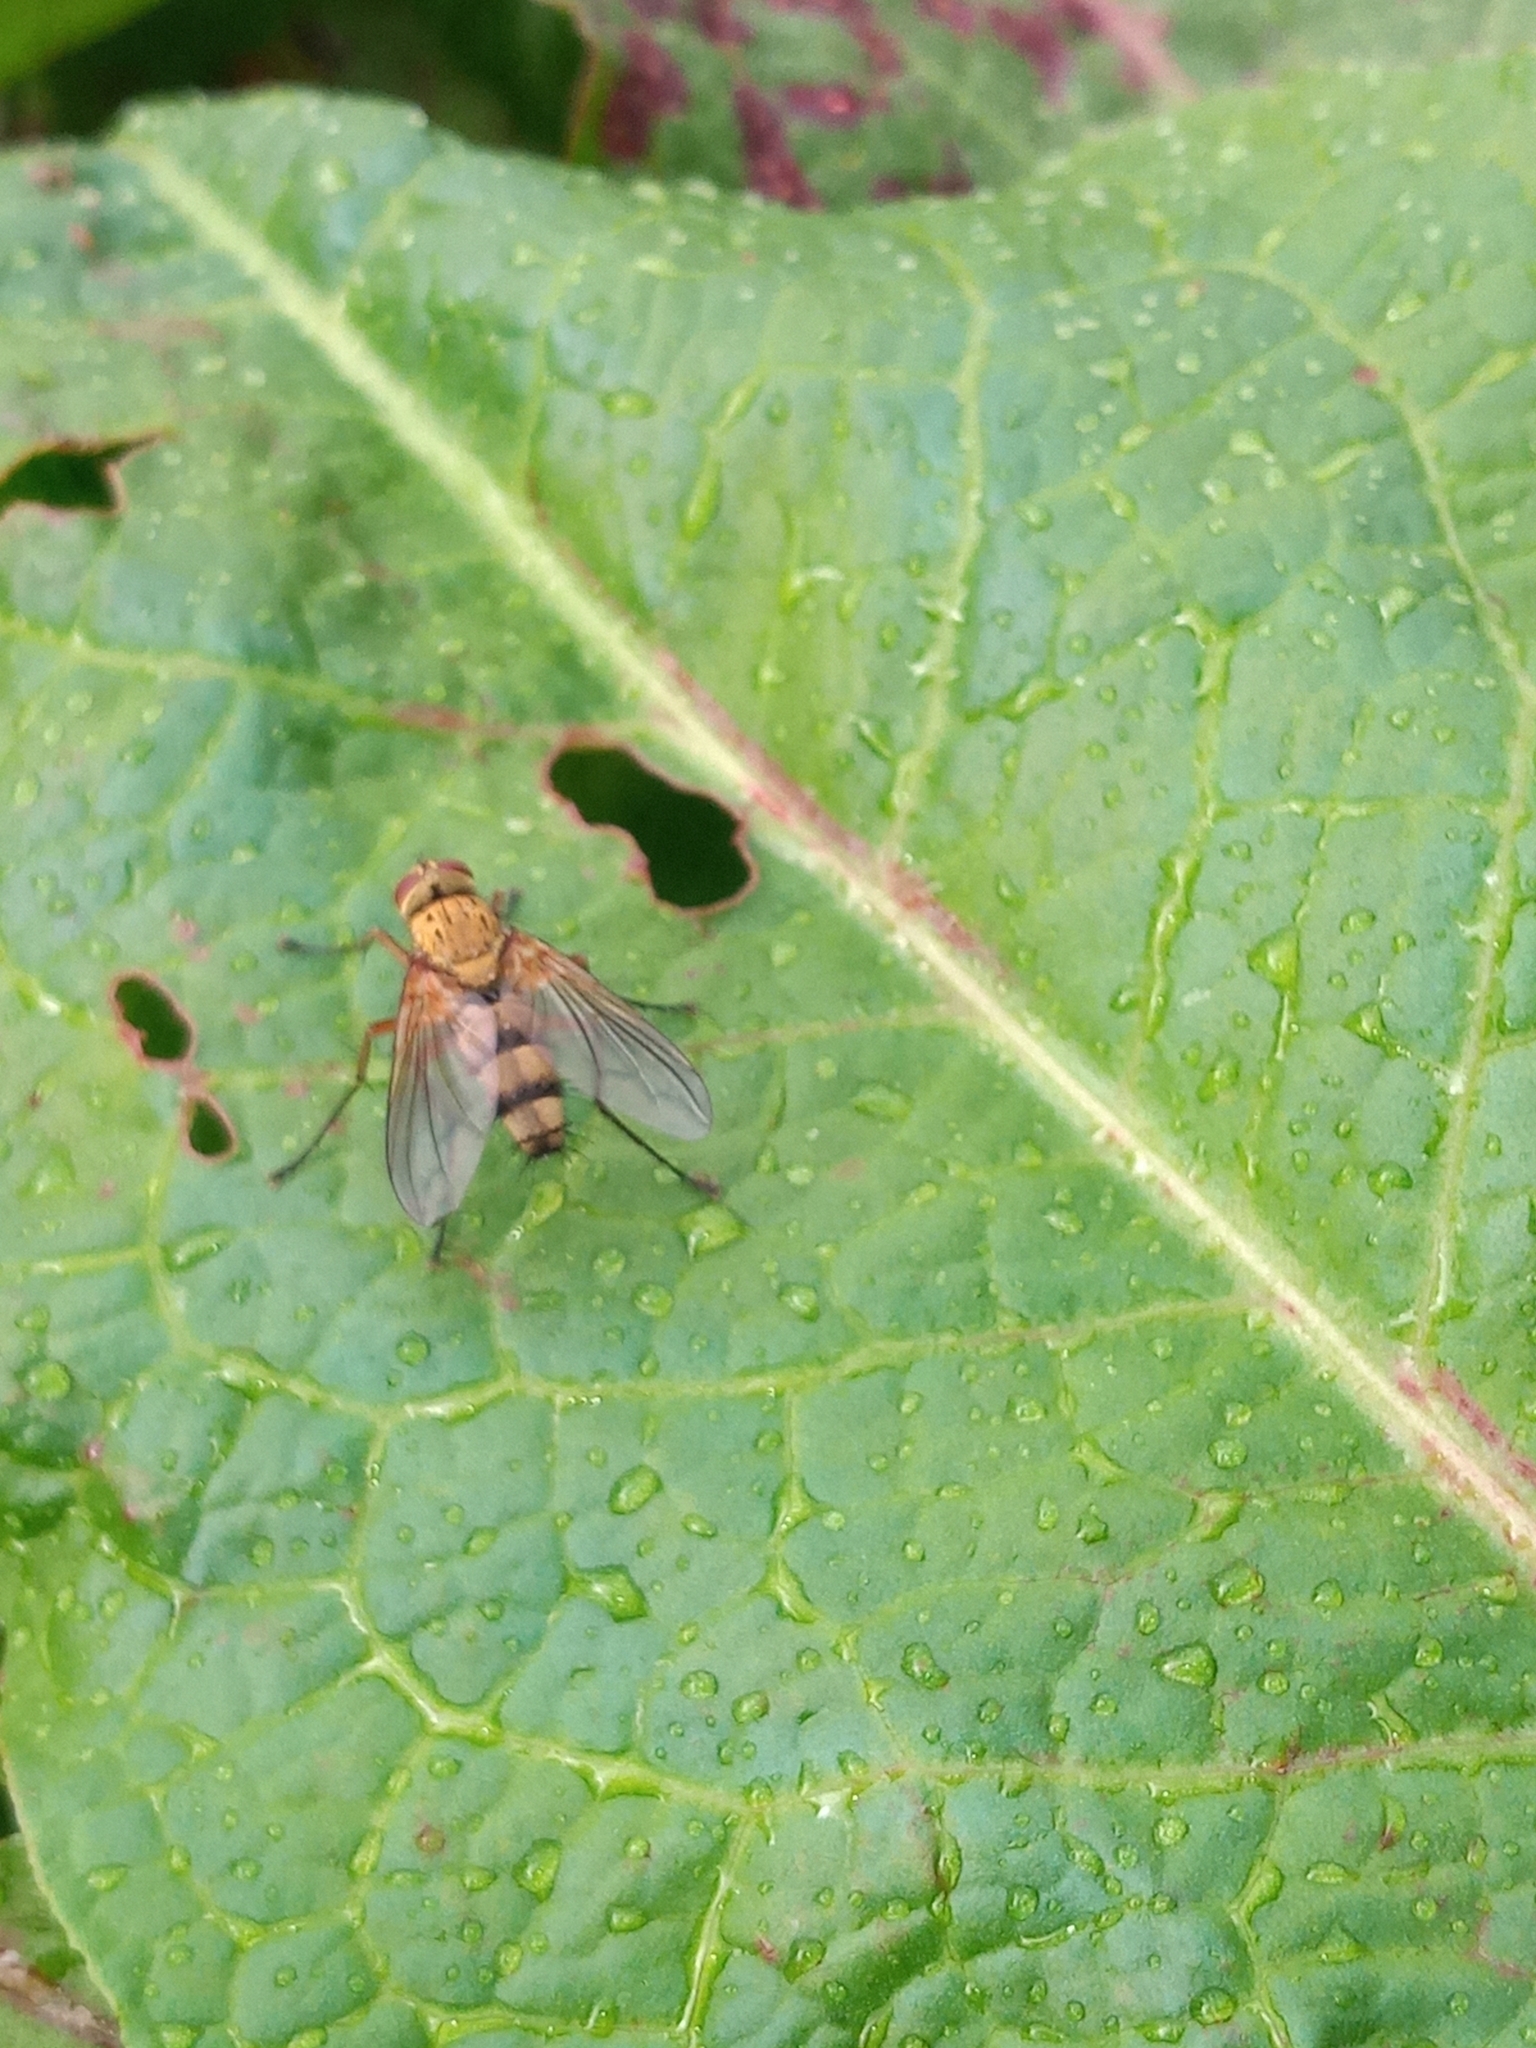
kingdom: Animalia
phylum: Arthropoda
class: Insecta
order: Diptera
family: Tachinidae
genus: Dexiosoma
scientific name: Dexiosoma caninum
